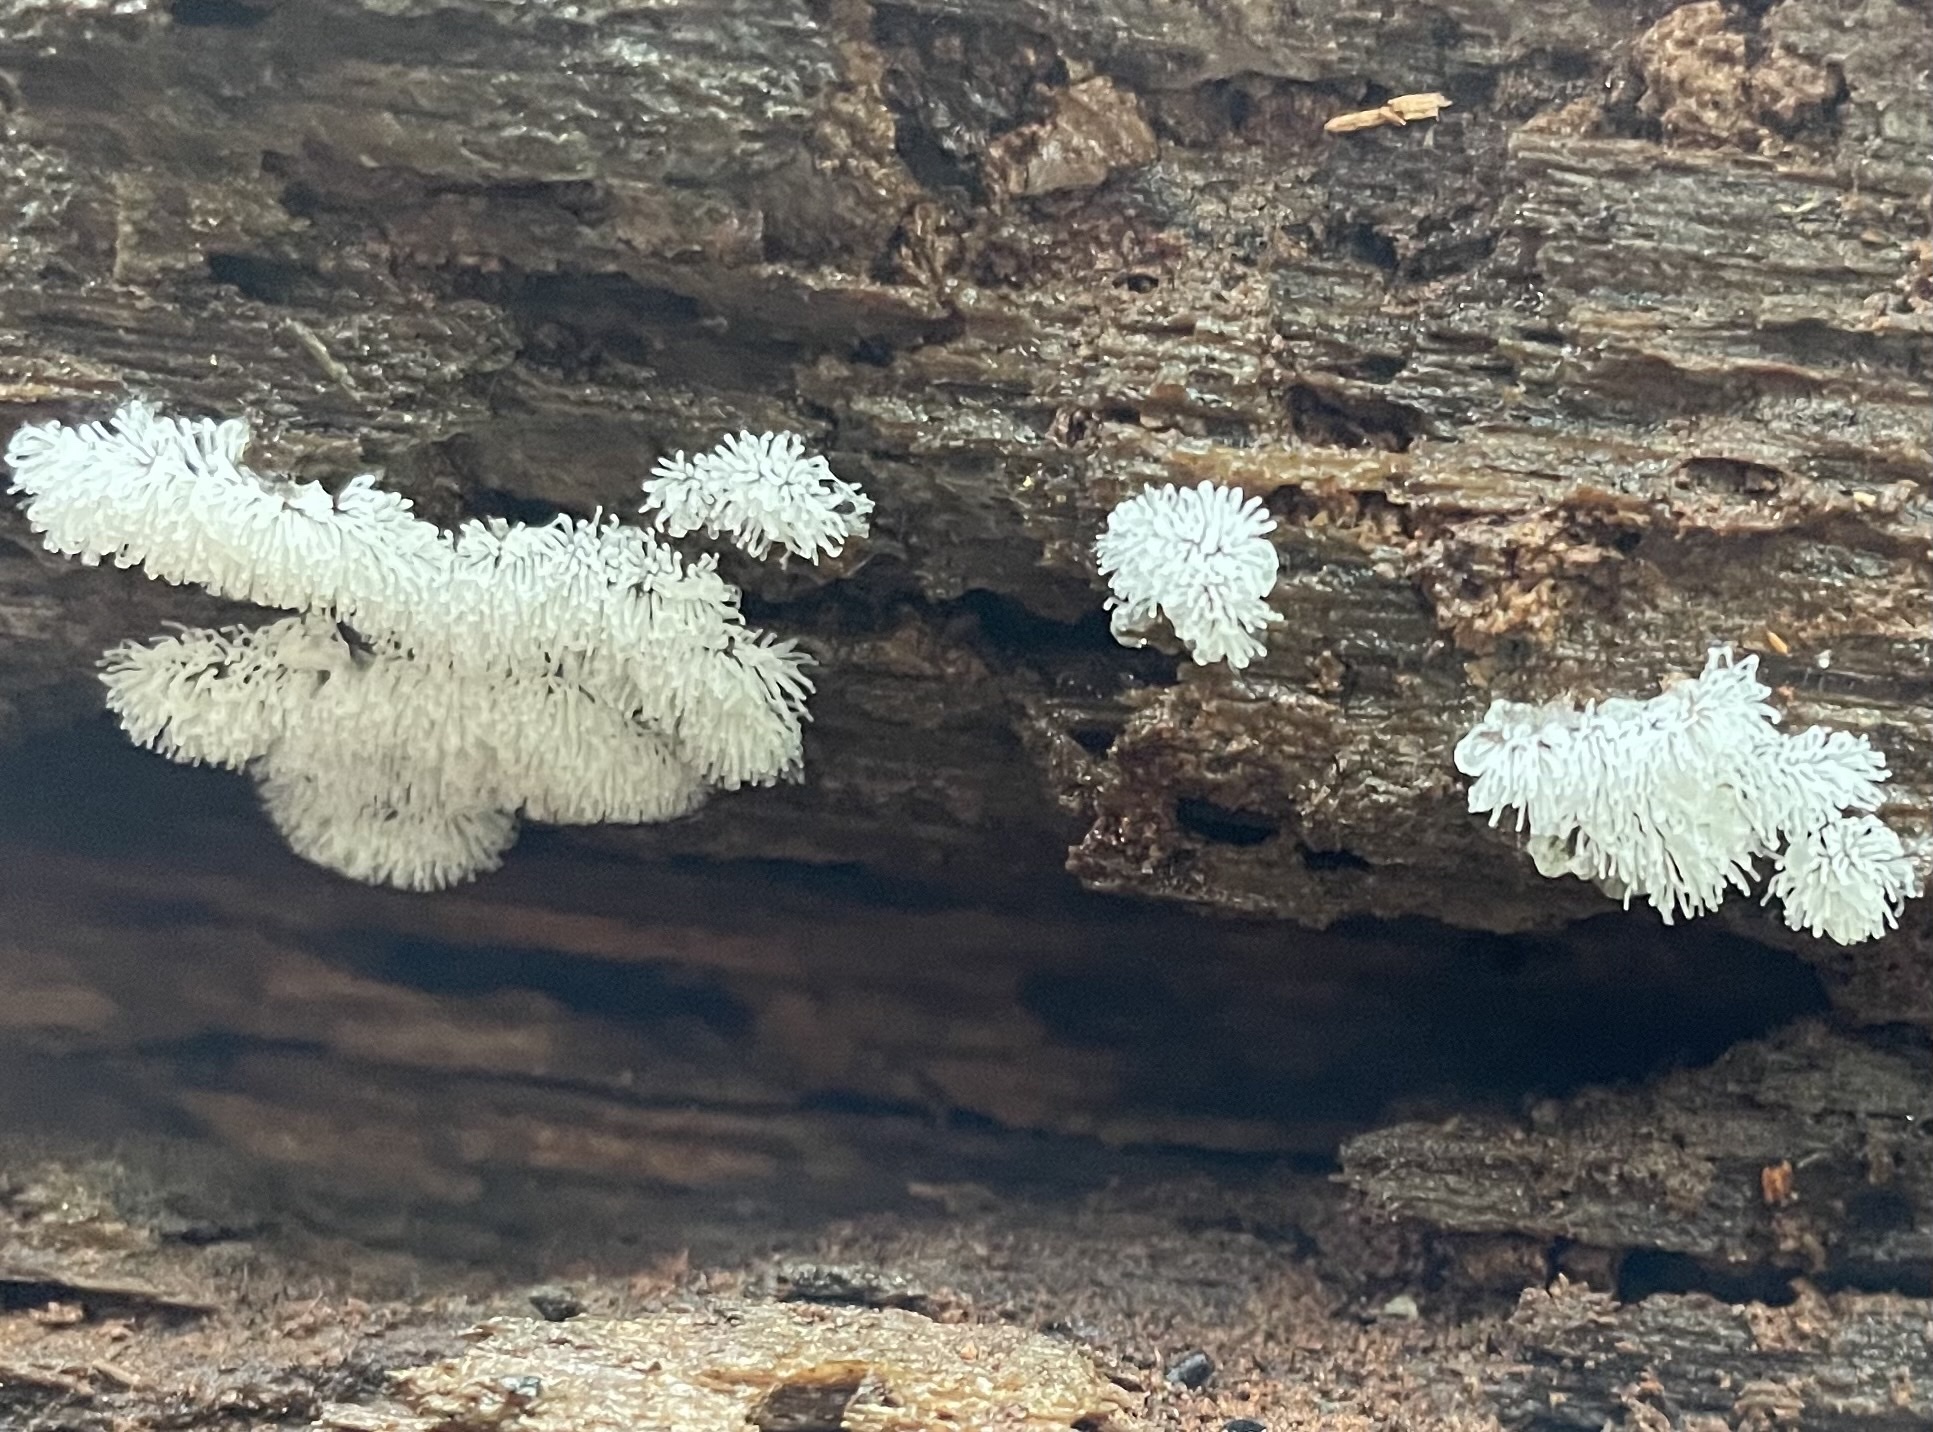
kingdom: Protozoa
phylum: Mycetozoa
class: Protosteliomycetes
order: Ceratiomyxales
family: Ceratiomyxaceae
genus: Ceratiomyxa
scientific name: Ceratiomyxa fruticulosa
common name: Honeycomb coral slime mold
